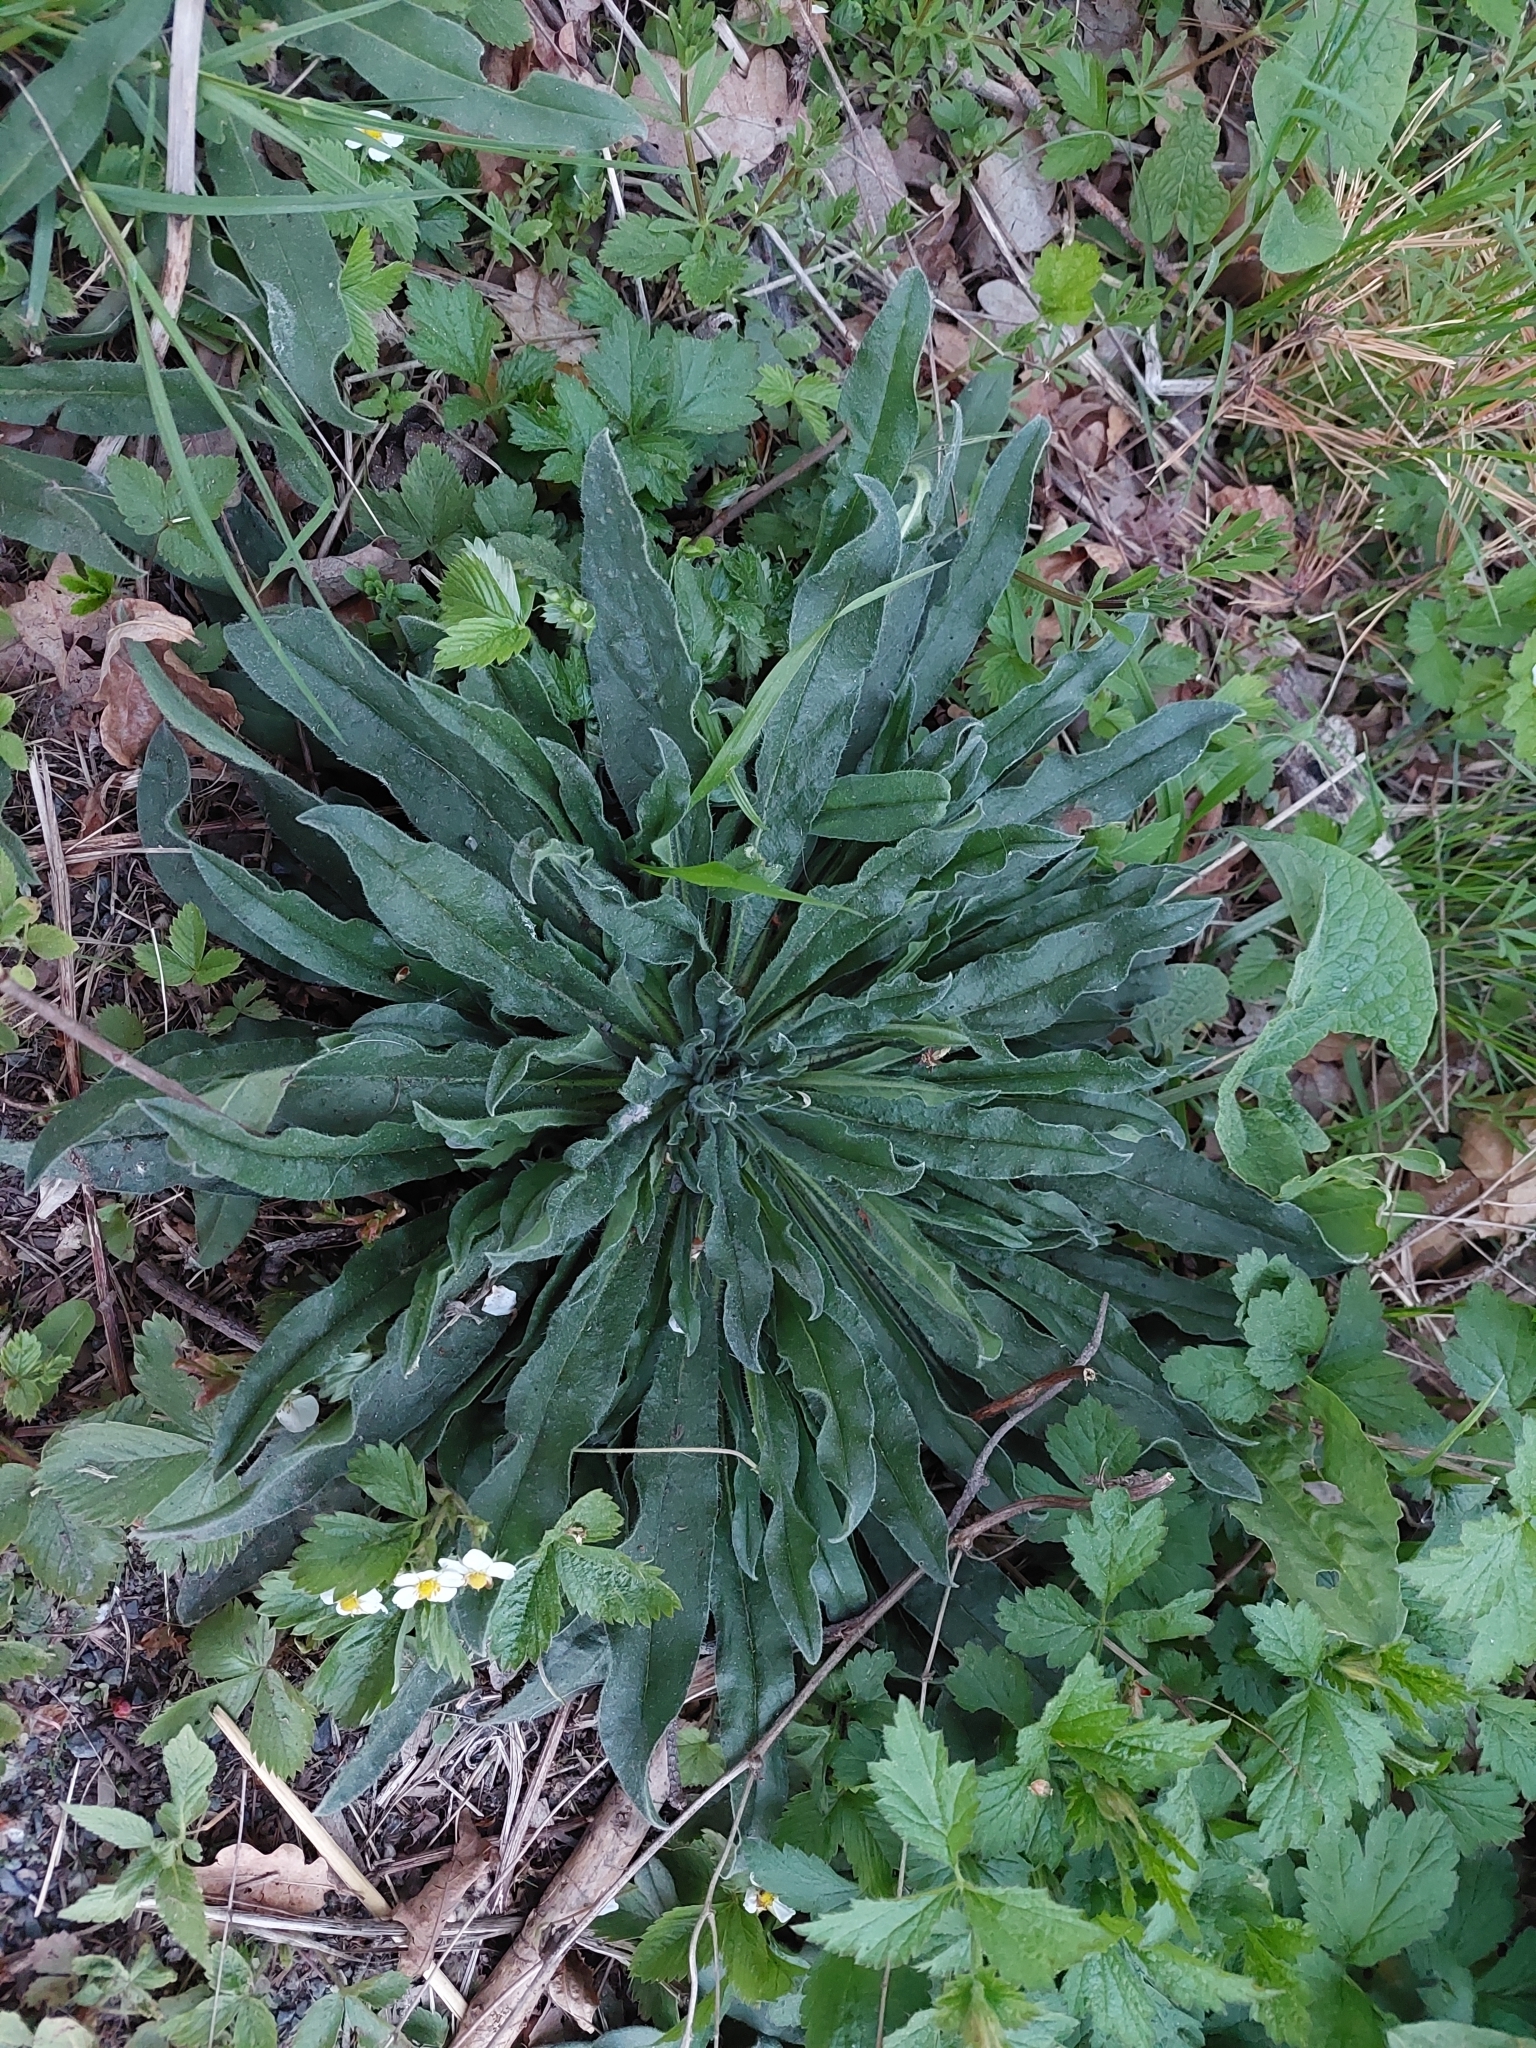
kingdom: Plantae
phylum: Tracheophyta
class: Magnoliopsida
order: Boraginales
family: Boraginaceae
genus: Echium
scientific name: Echium vulgare
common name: Common viper's bugloss
